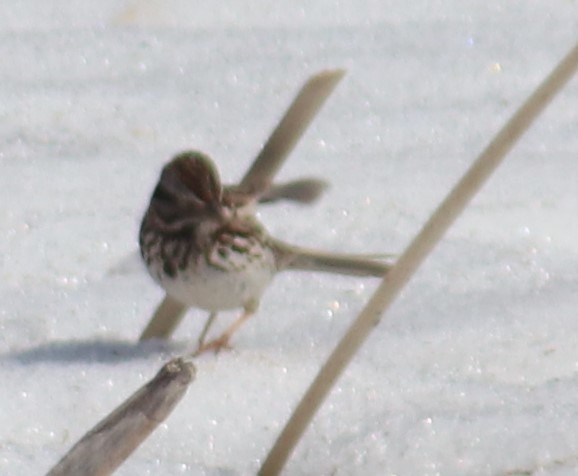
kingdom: Animalia
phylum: Chordata
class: Aves
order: Passeriformes
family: Passerellidae
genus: Melospiza
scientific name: Melospiza melodia
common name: Song sparrow
